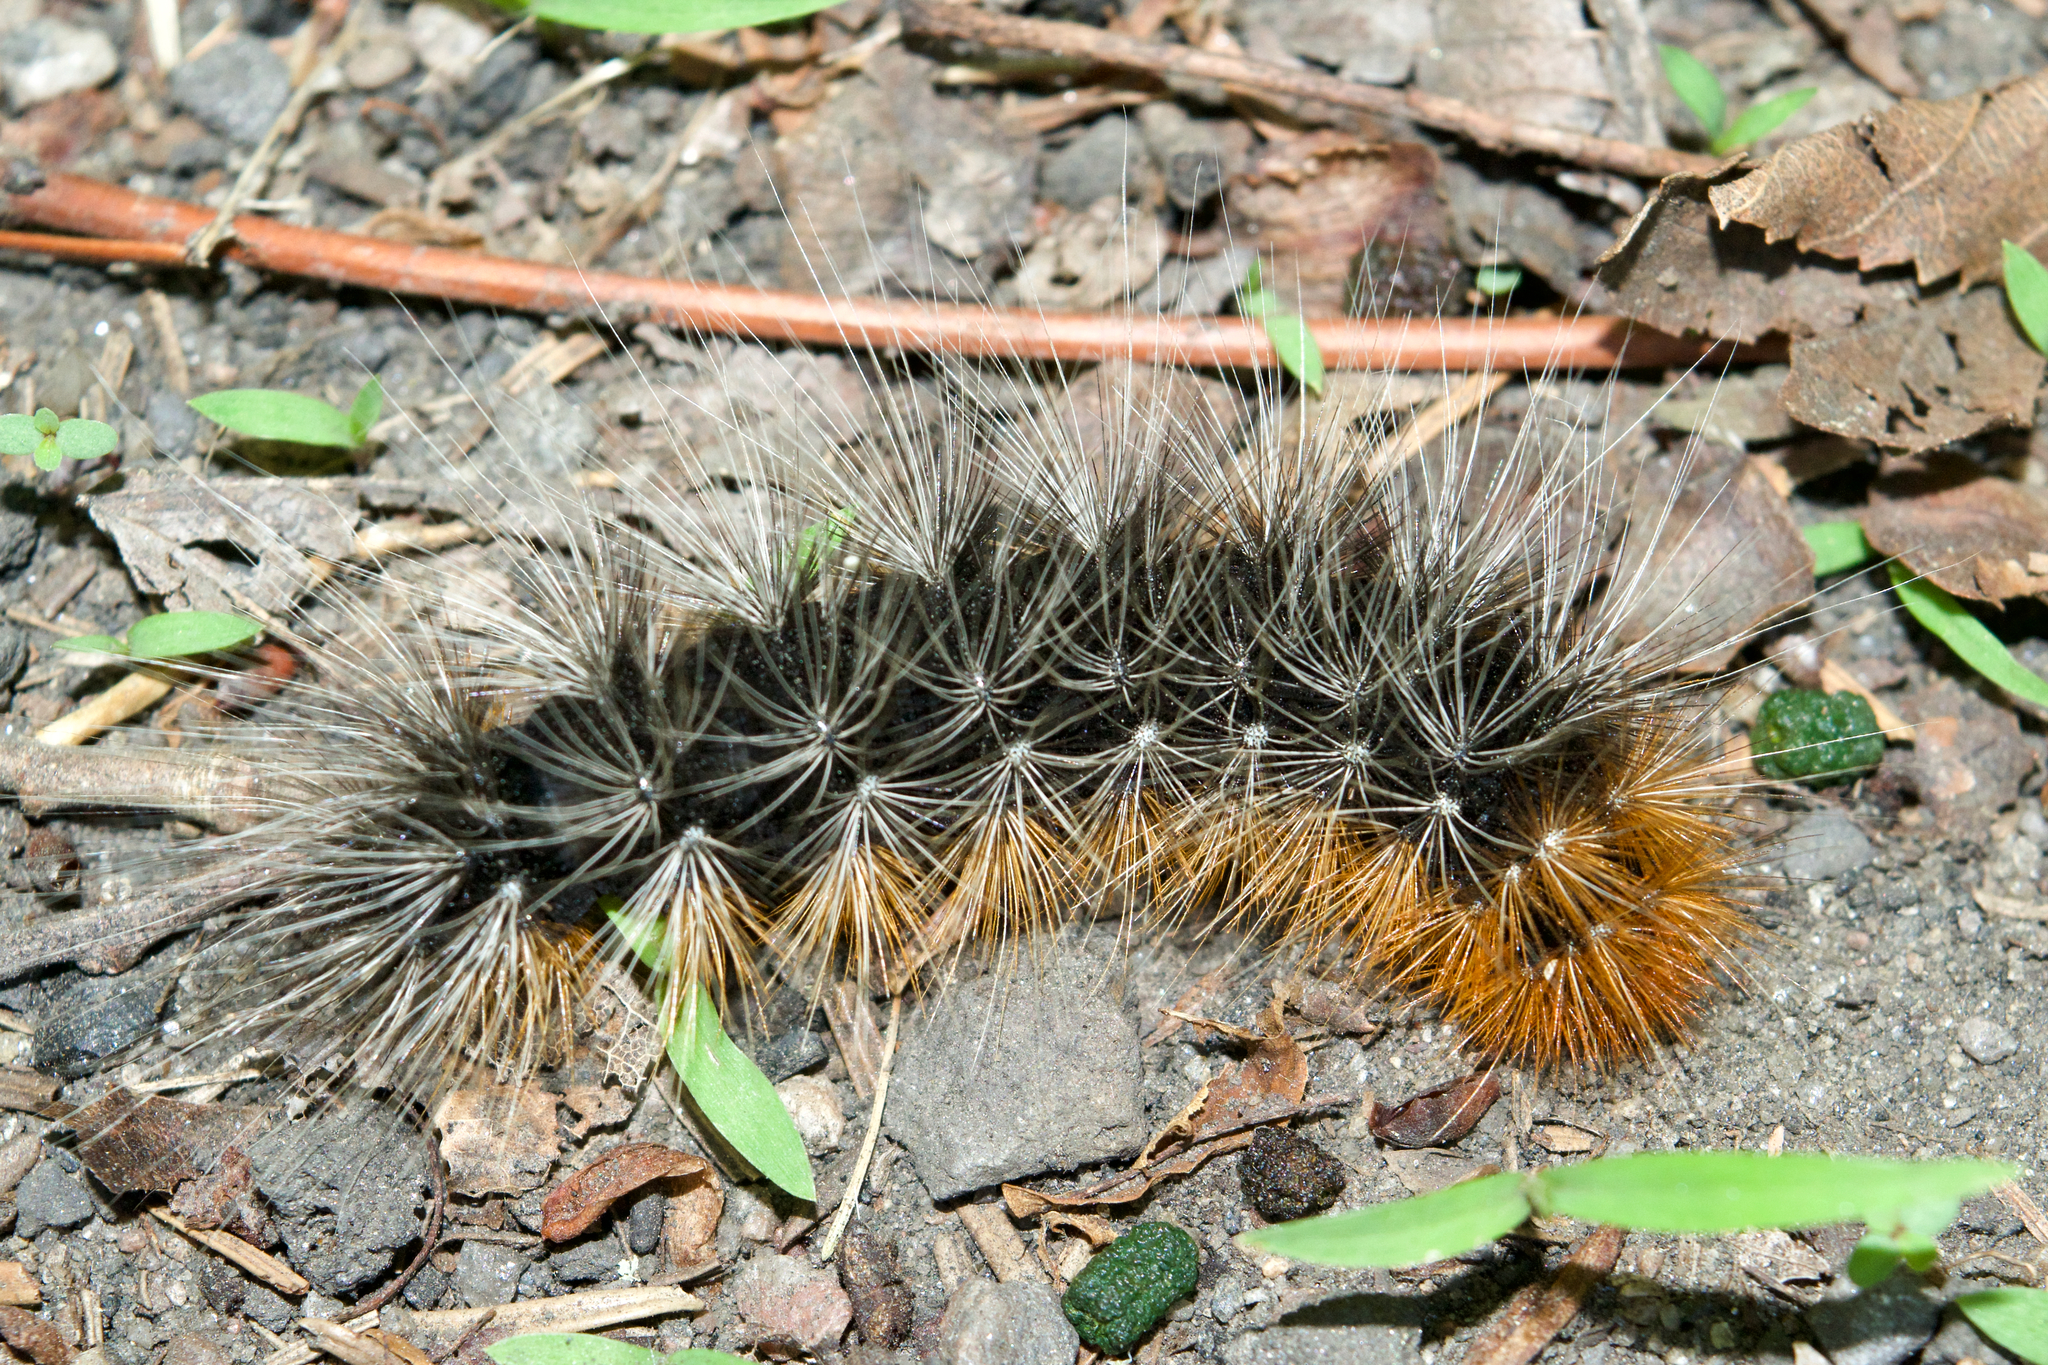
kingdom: Animalia
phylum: Arthropoda
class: Insecta
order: Lepidoptera
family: Erebidae
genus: Arctia
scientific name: Arctia caja
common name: Garden tiger
